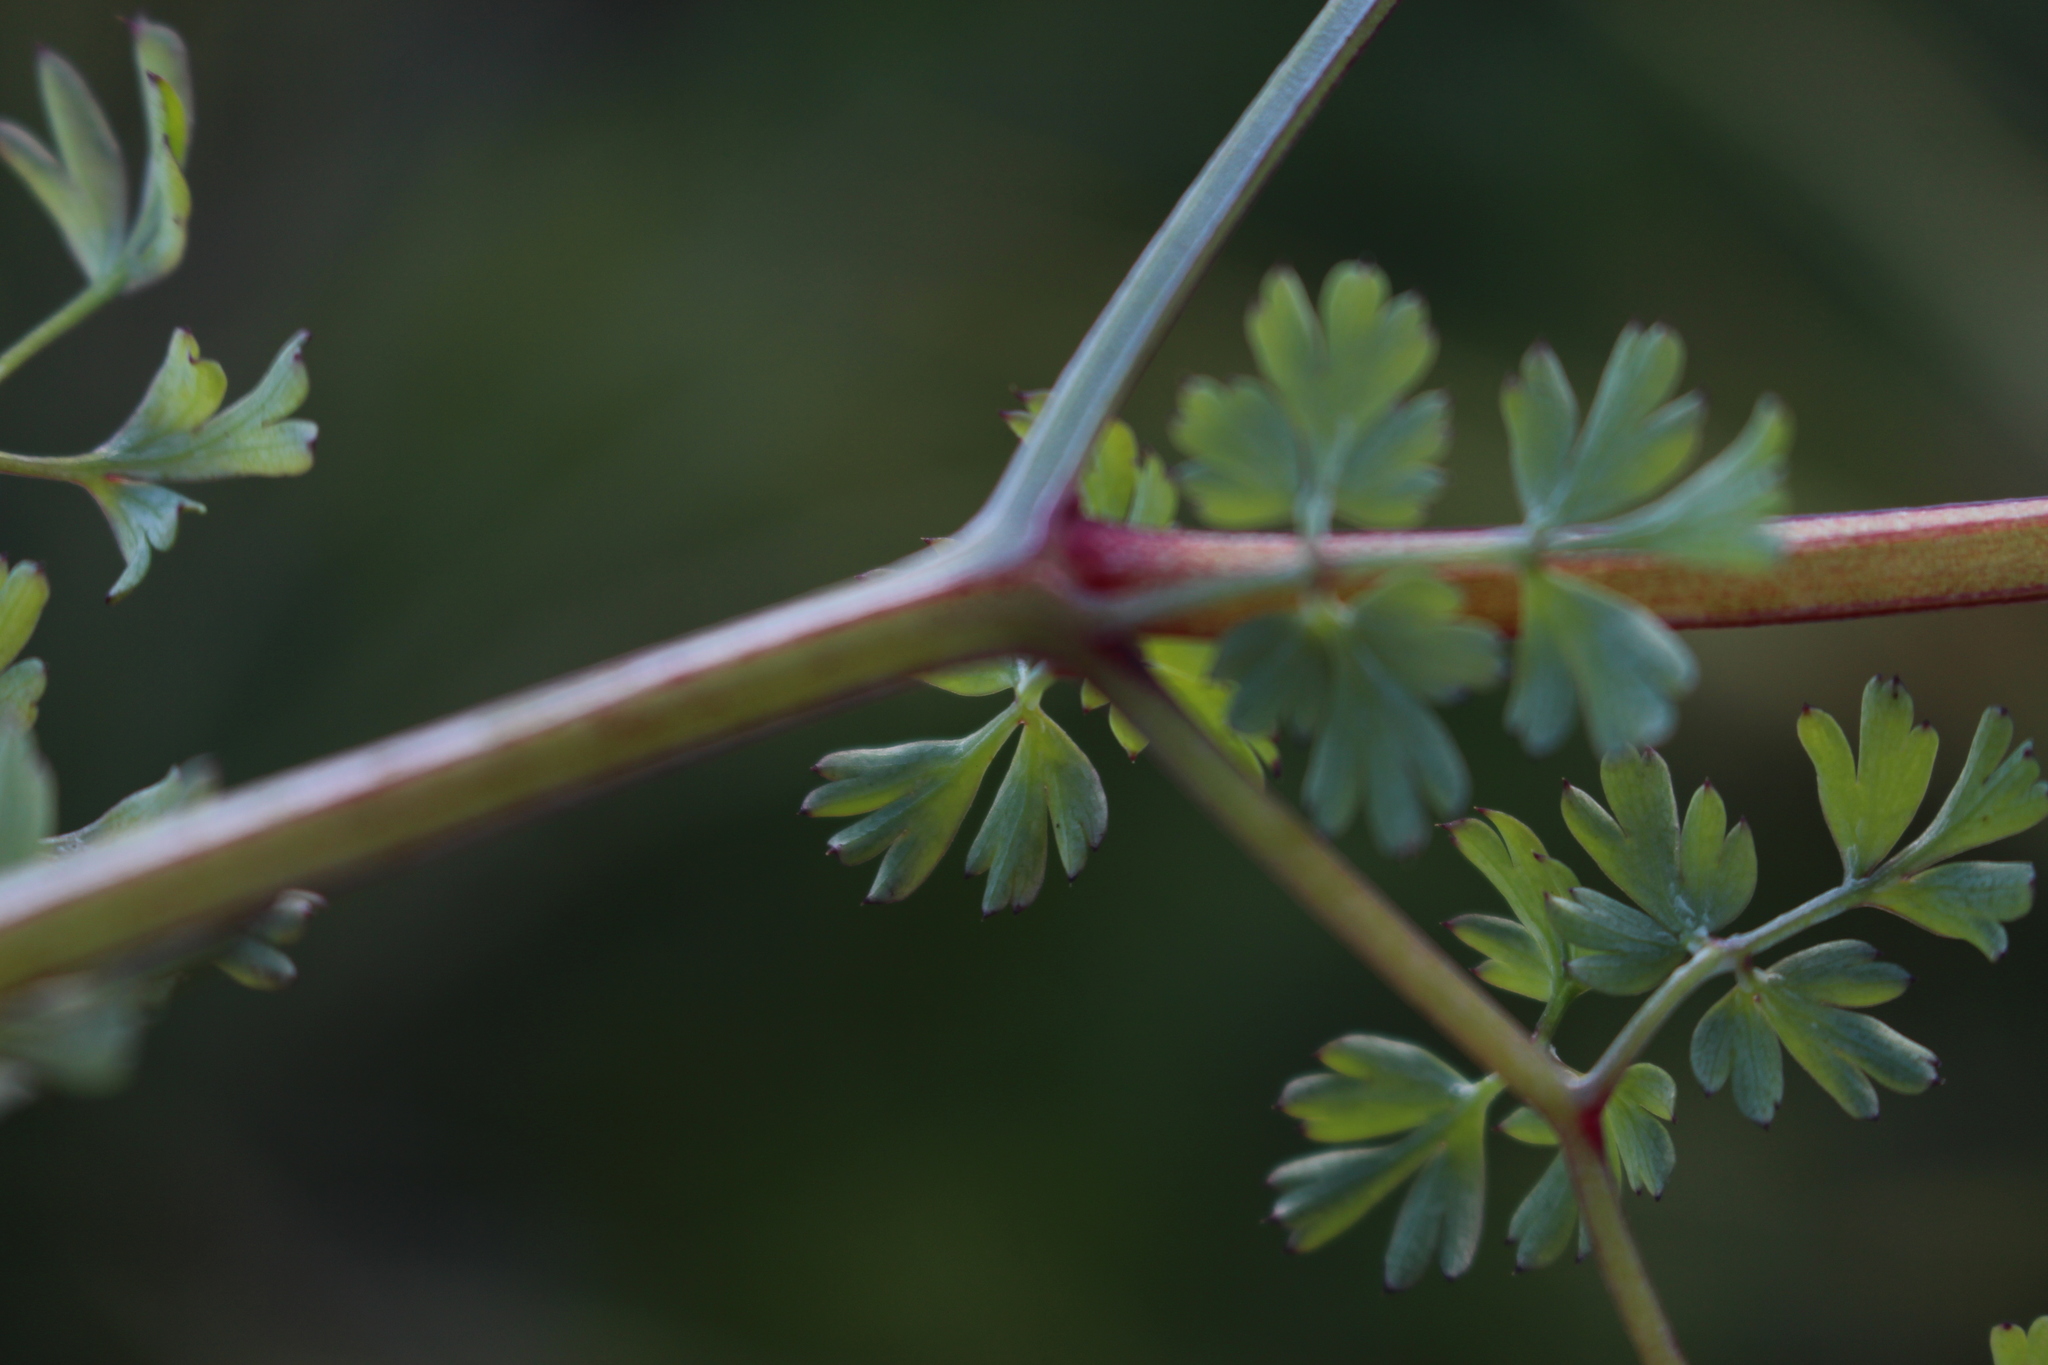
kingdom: Plantae
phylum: Tracheophyta
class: Magnoliopsida
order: Ranunculales
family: Papaveraceae
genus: Fumaria
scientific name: Fumaria capreolata
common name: White ramping-fumitory
